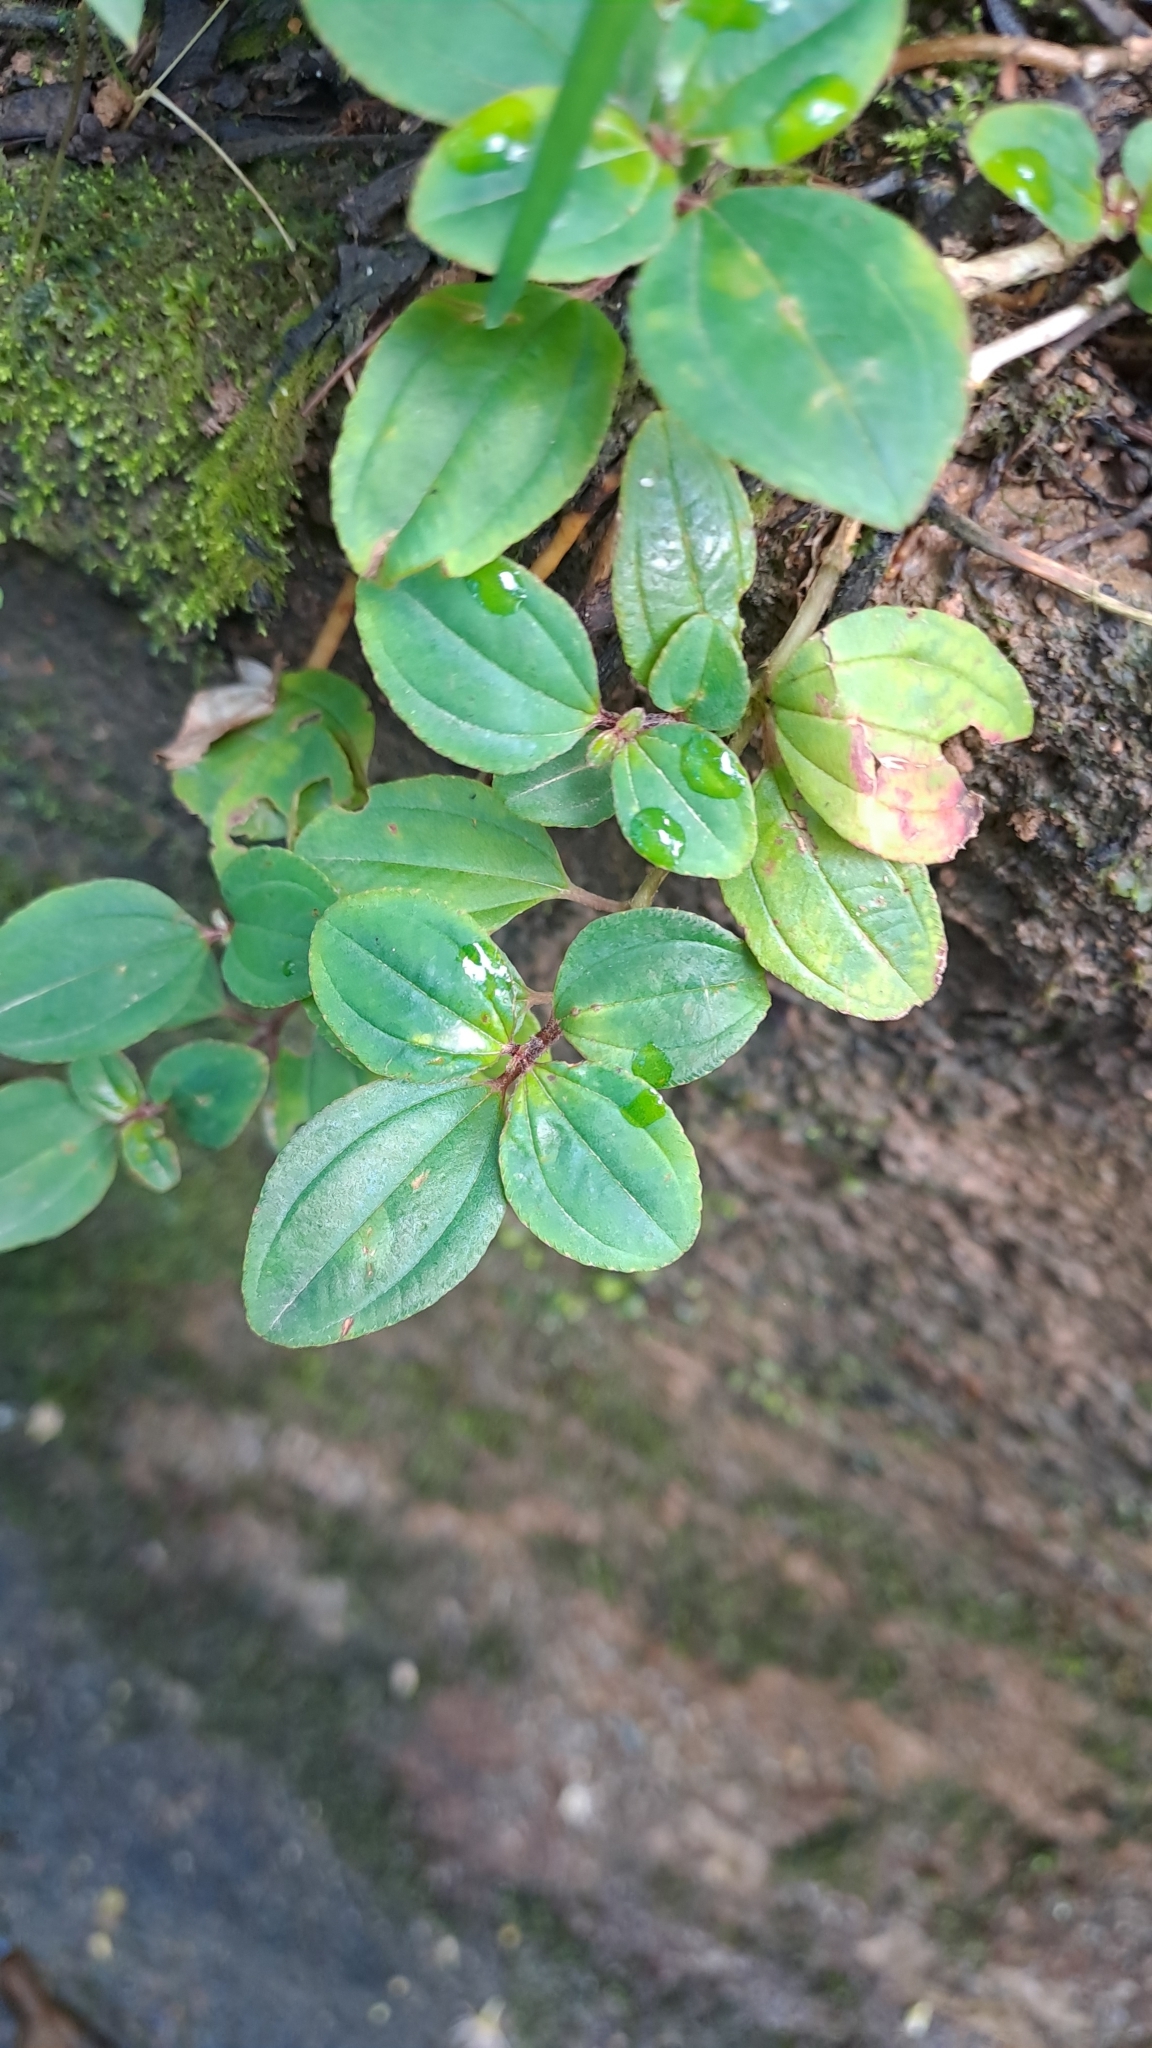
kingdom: Plantae
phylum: Tracheophyta
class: Magnoliopsida
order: Myrtales
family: Melastomataceae
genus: Melastoma
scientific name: Melastoma dodecandrum
